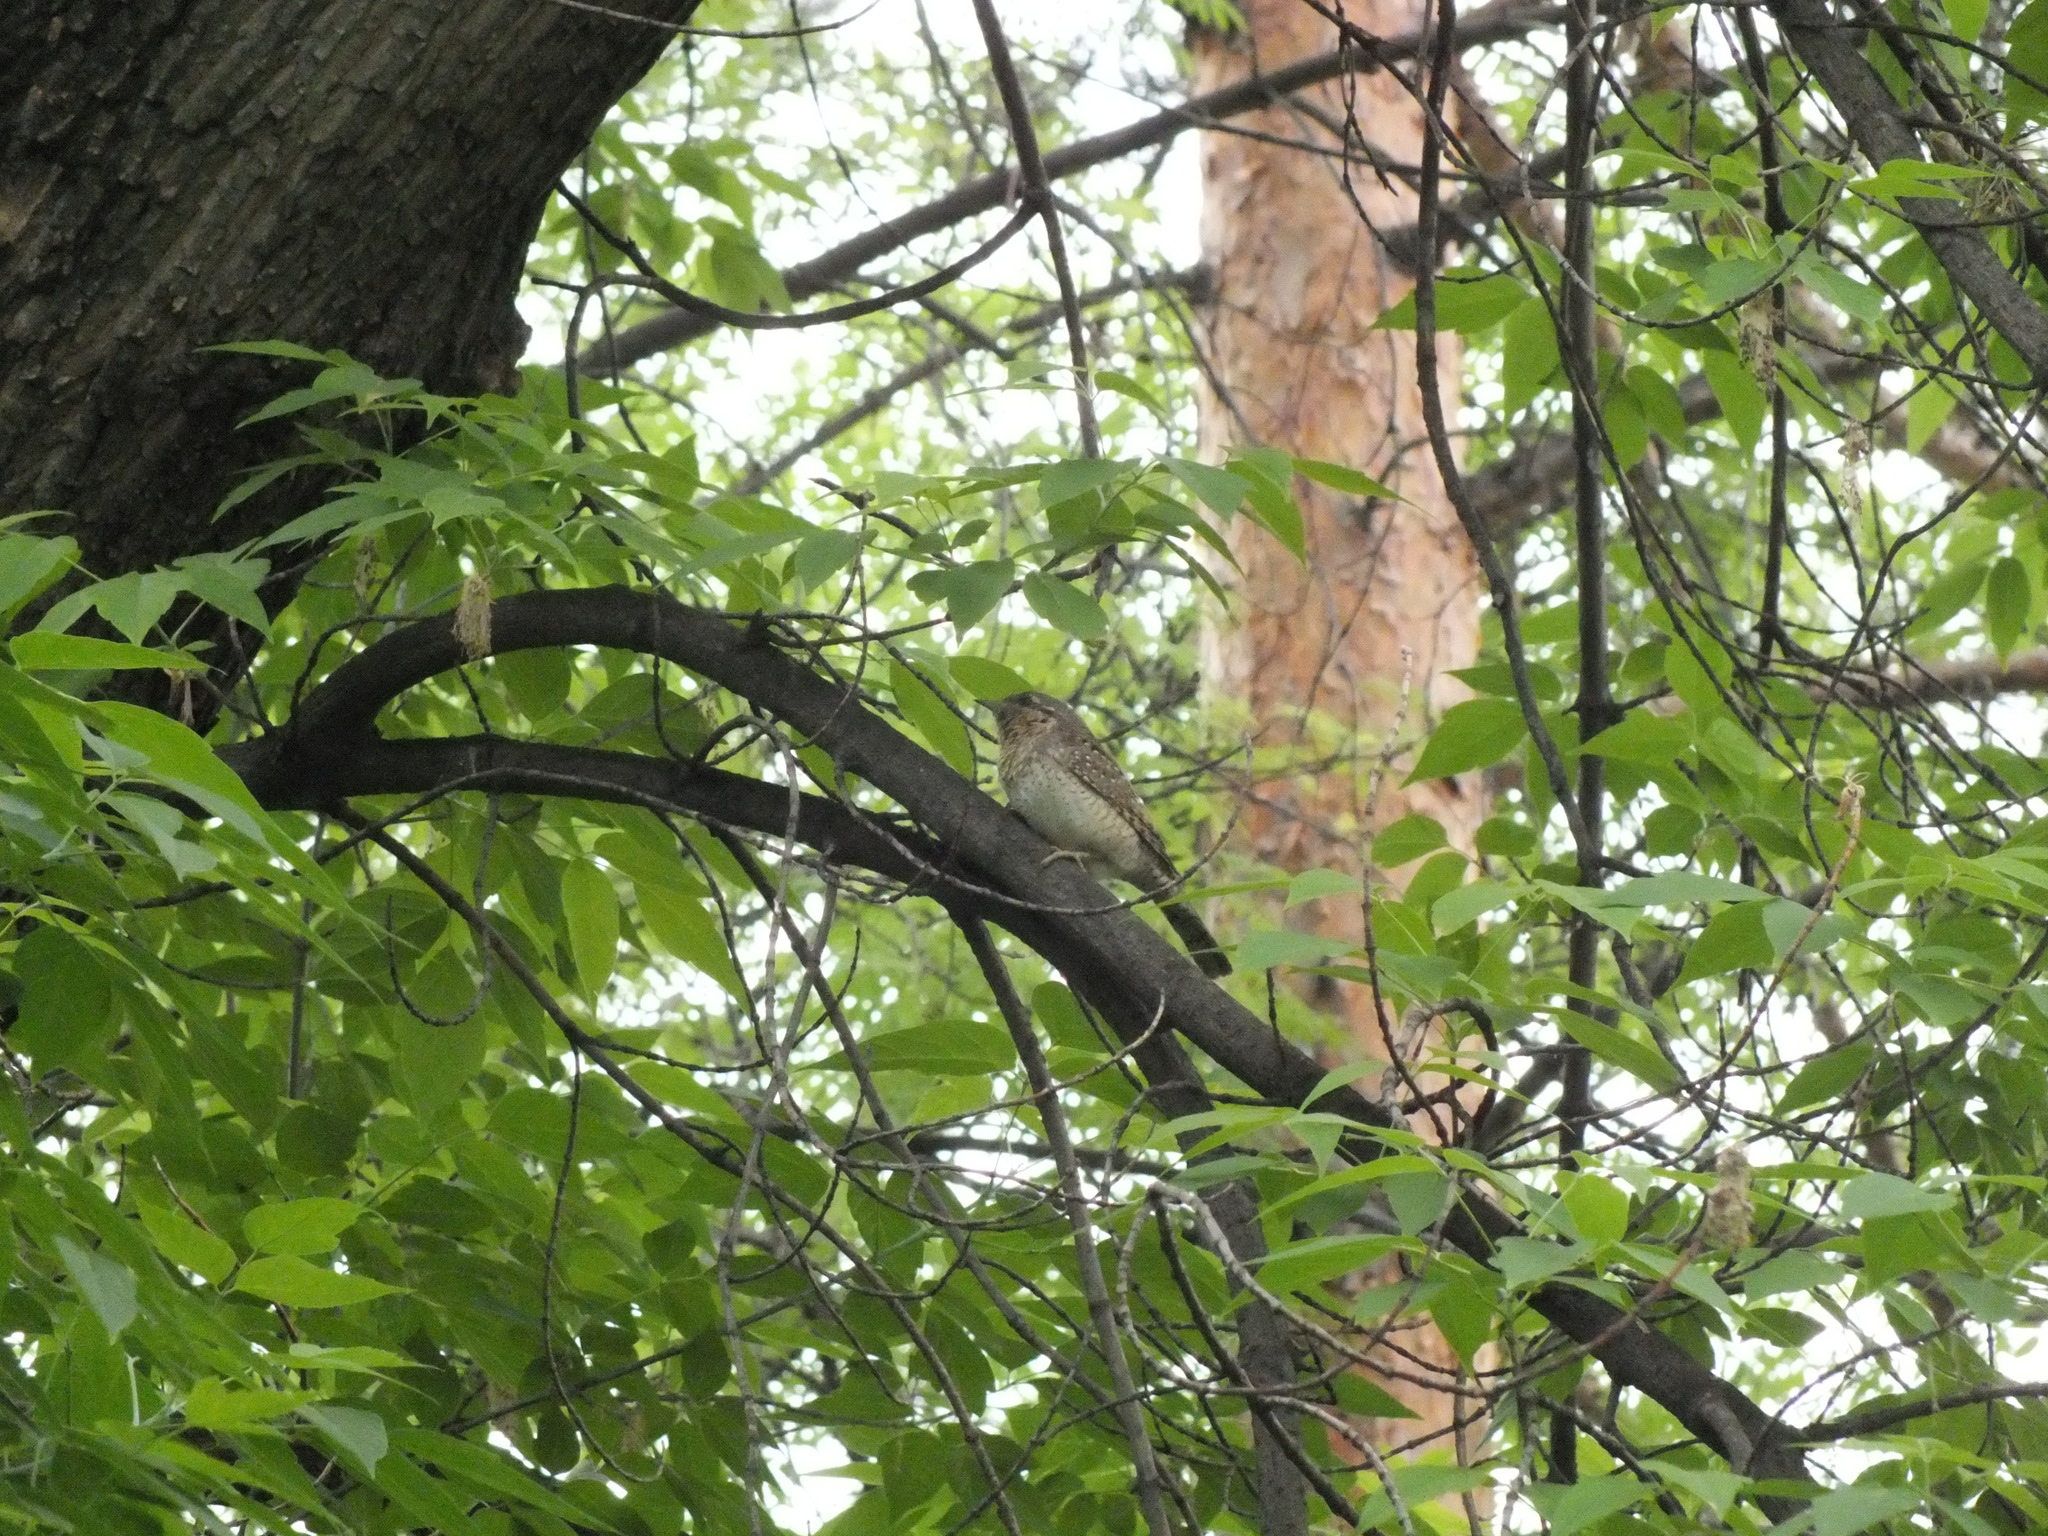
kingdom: Animalia
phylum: Chordata
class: Aves
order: Piciformes
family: Picidae
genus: Jynx
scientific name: Jynx torquilla
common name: Eurasian wryneck
